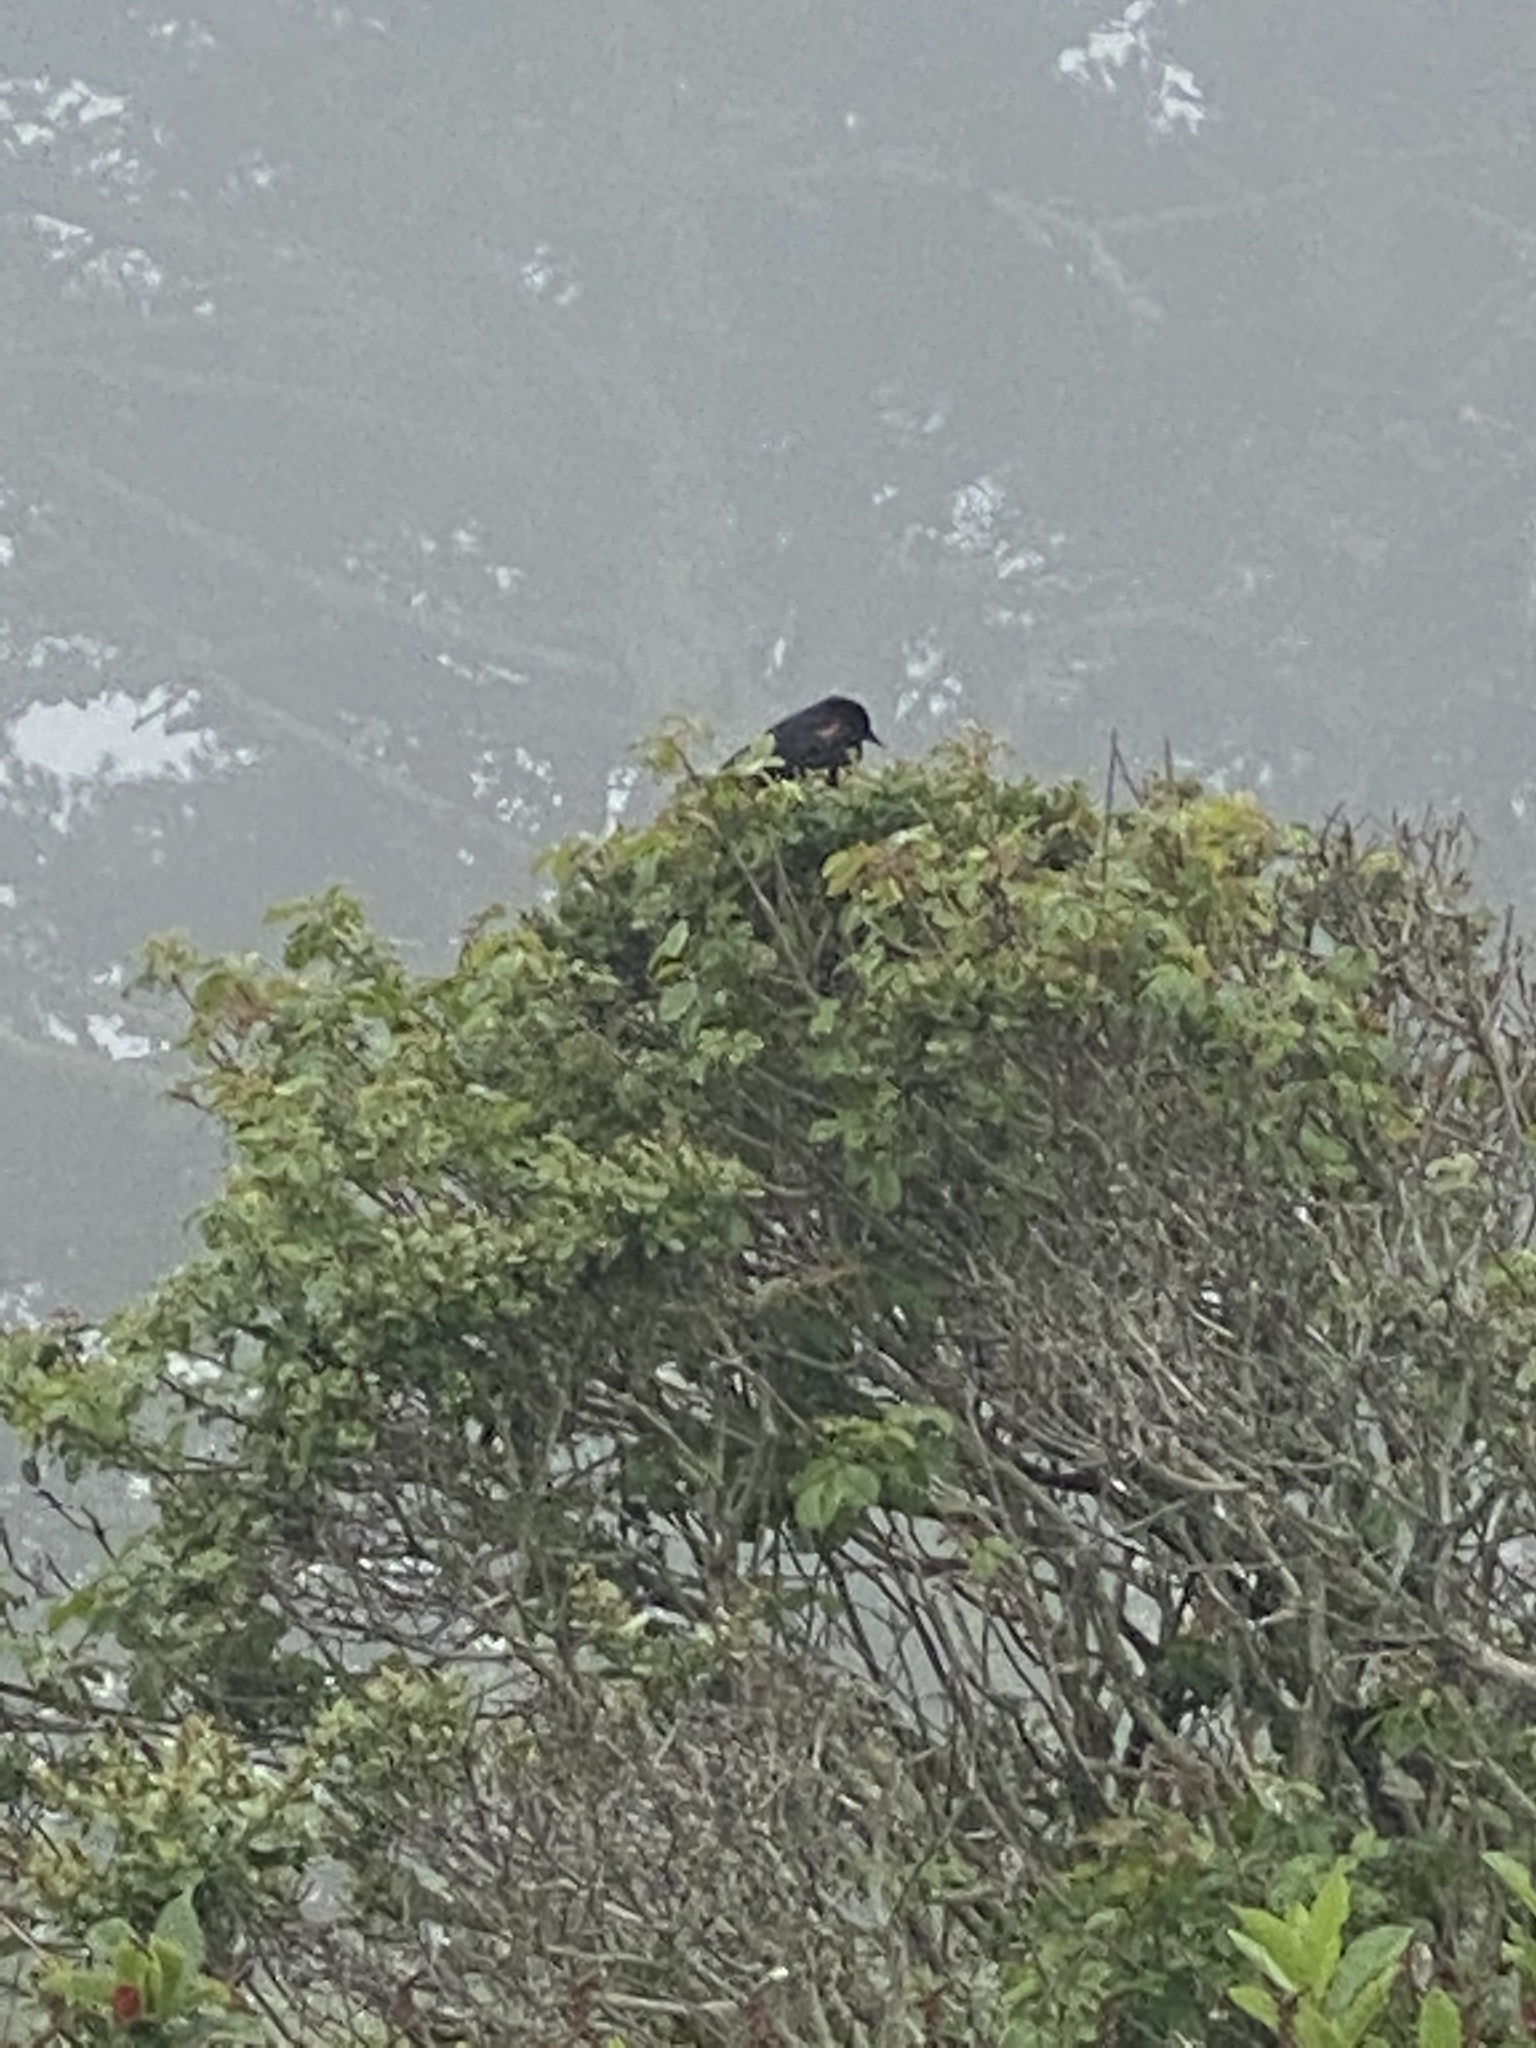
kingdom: Animalia
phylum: Chordata
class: Aves
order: Passeriformes
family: Icteridae
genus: Agelaius
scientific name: Agelaius phoeniceus
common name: Red-winged blackbird
